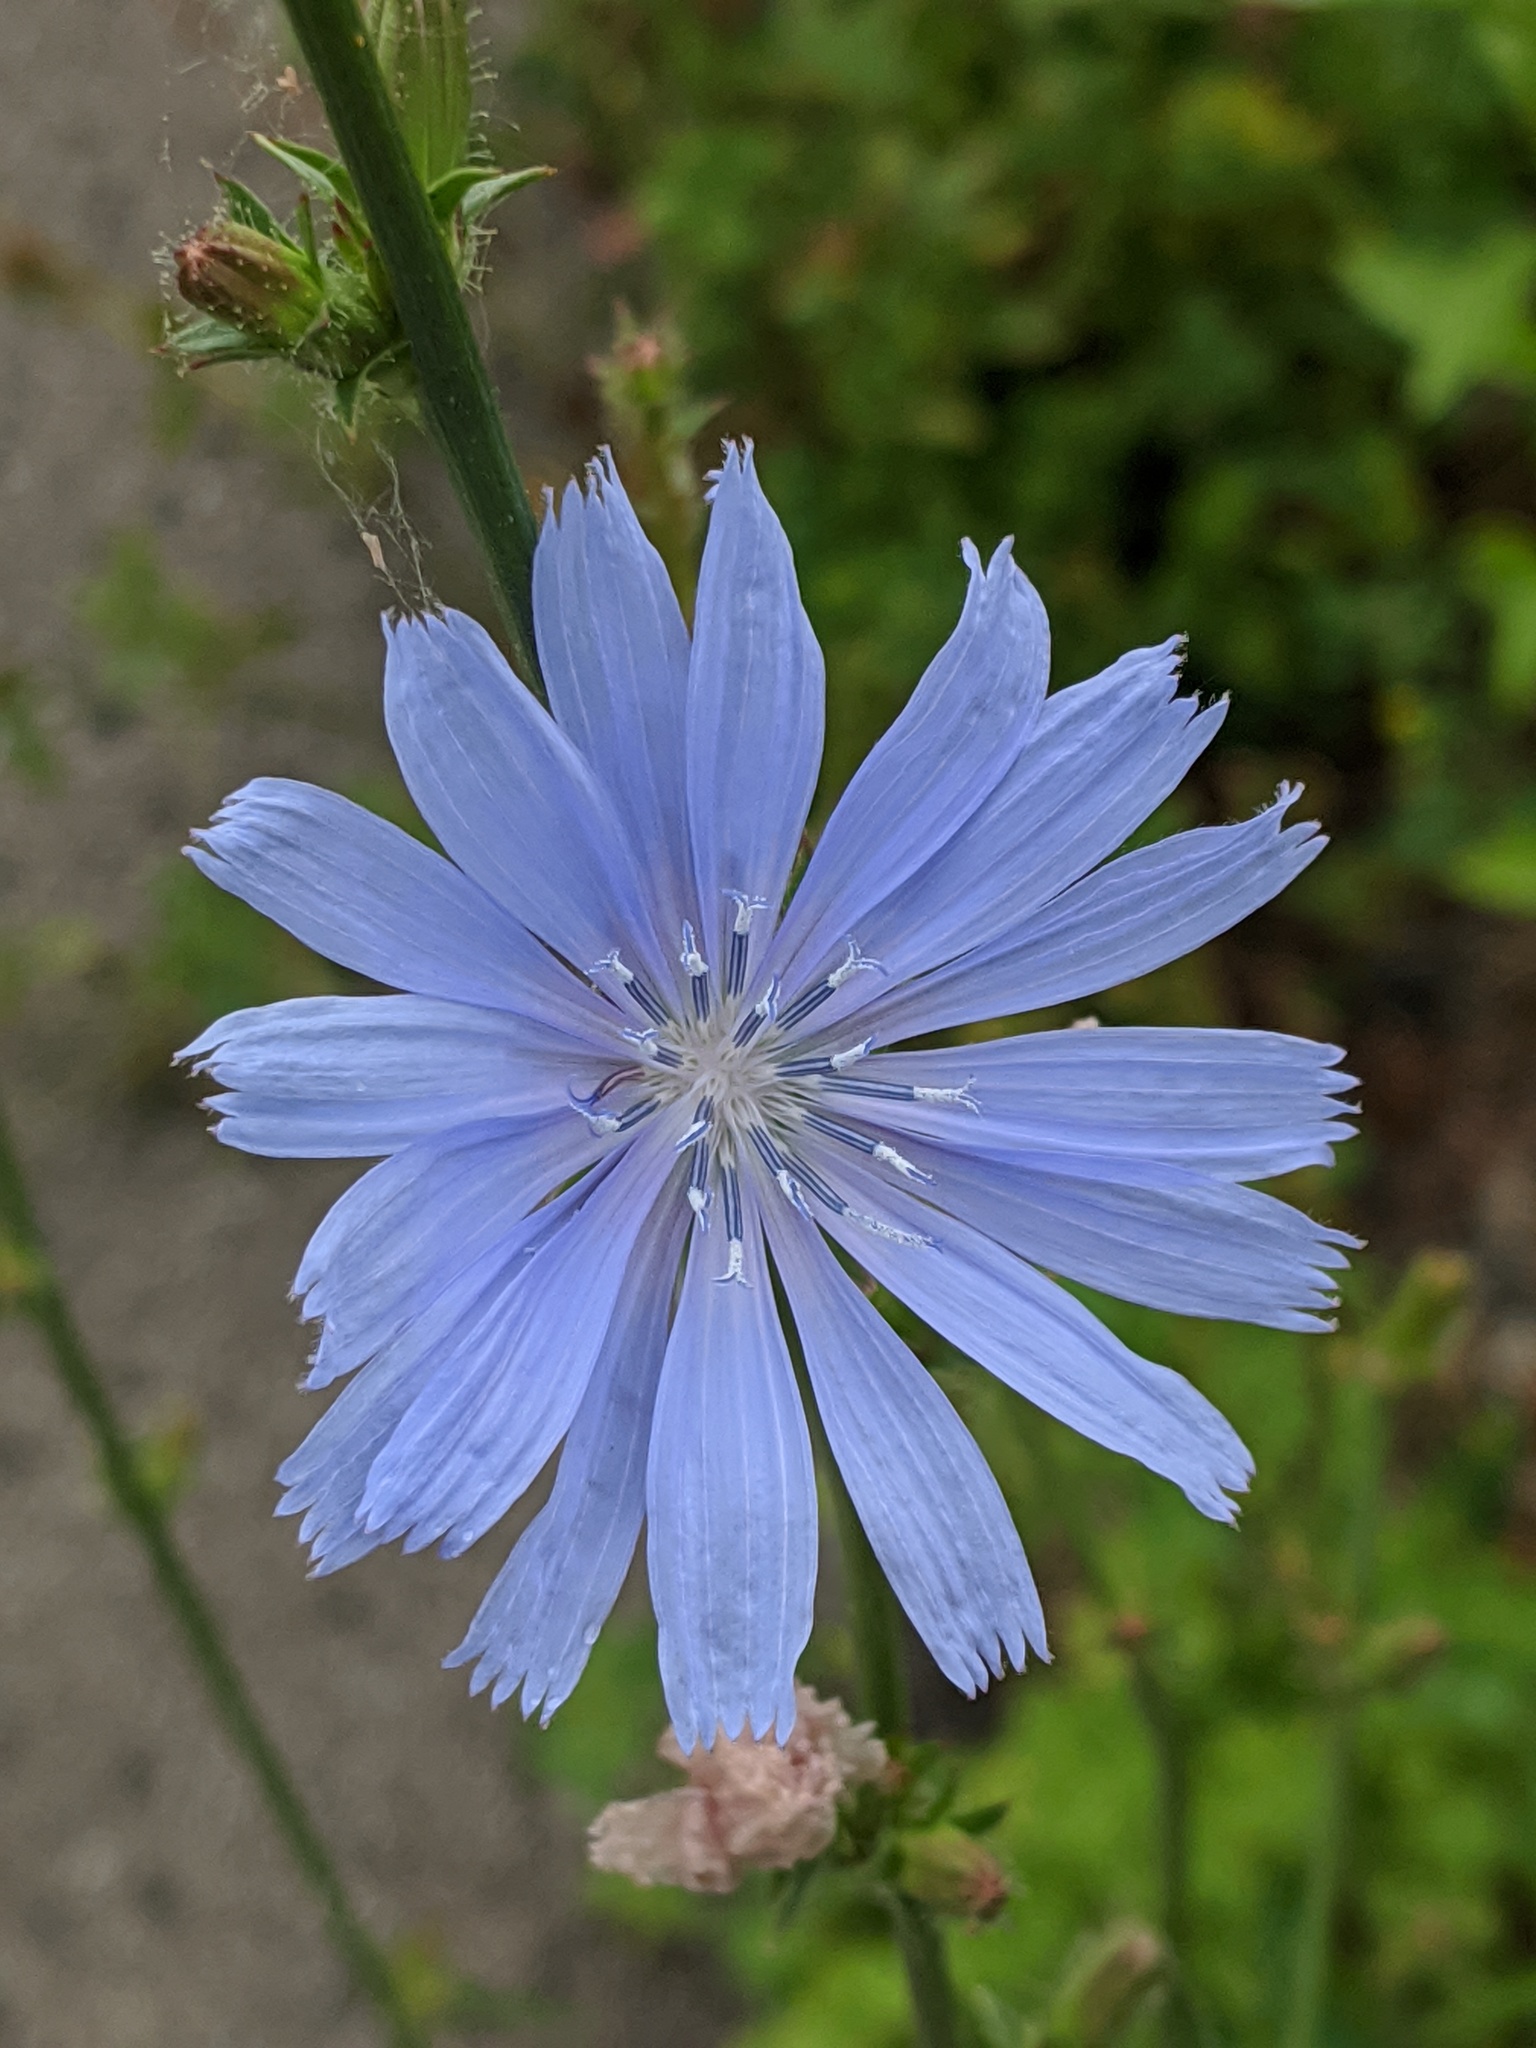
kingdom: Plantae
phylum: Tracheophyta
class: Magnoliopsida
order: Asterales
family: Asteraceae
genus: Cichorium
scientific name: Cichorium intybus
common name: Chicory
